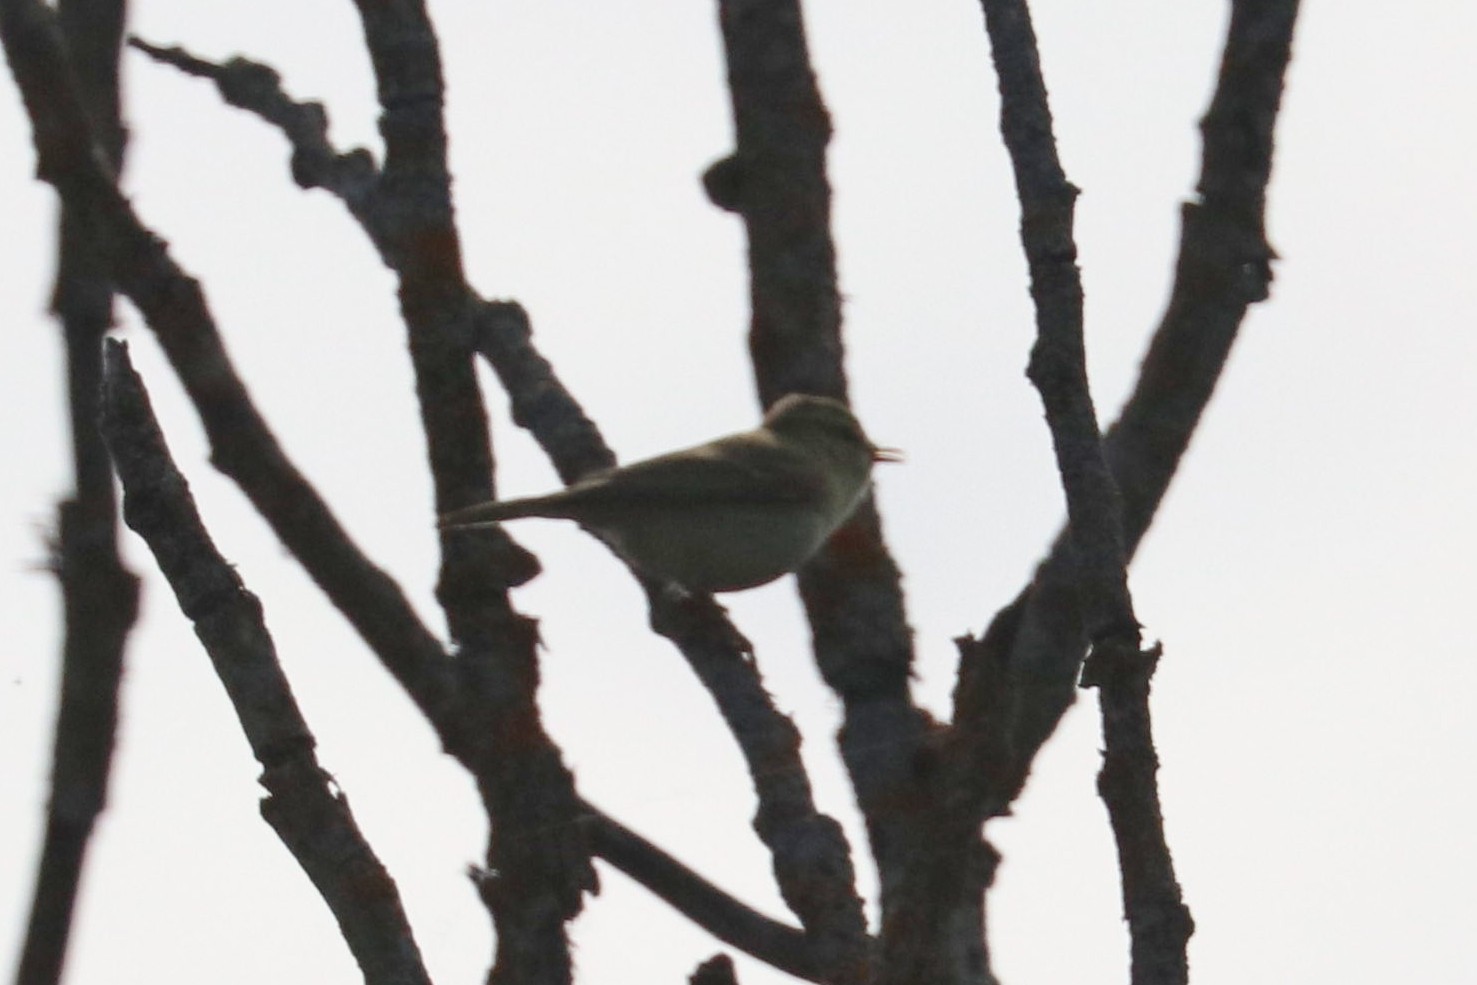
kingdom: Animalia
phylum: Chordata
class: Aves
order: Passeriformes
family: Phylloscopidae
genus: Phylloscopus
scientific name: Phylloscopus trochiloides
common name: Greenish warbler
